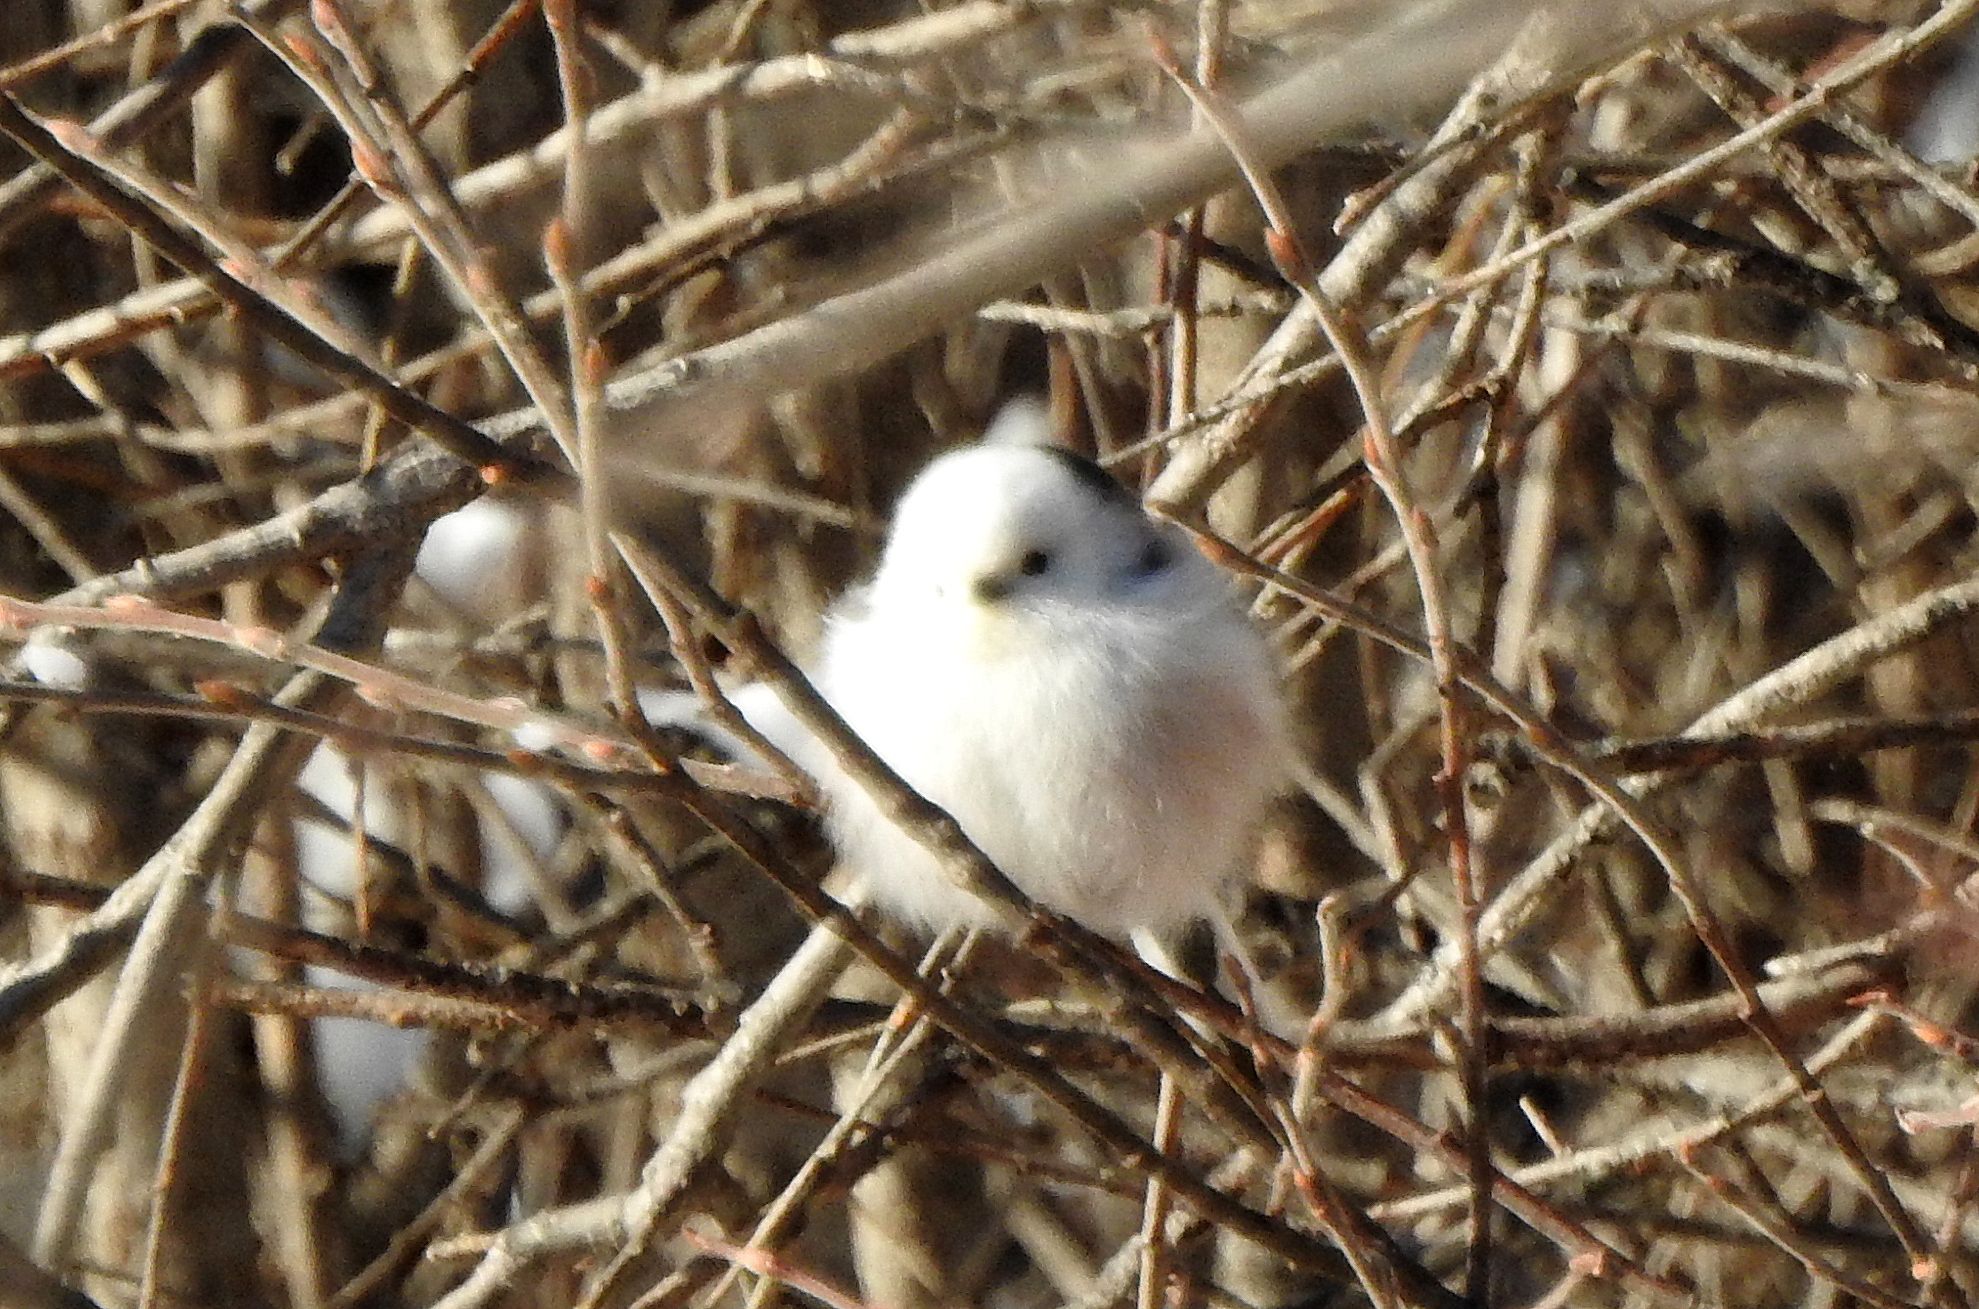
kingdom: Animalia
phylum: Chordata
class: Aves
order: Passeriformes
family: Aegithalidae
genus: Aegithalos
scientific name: Aegithalos caudatus
